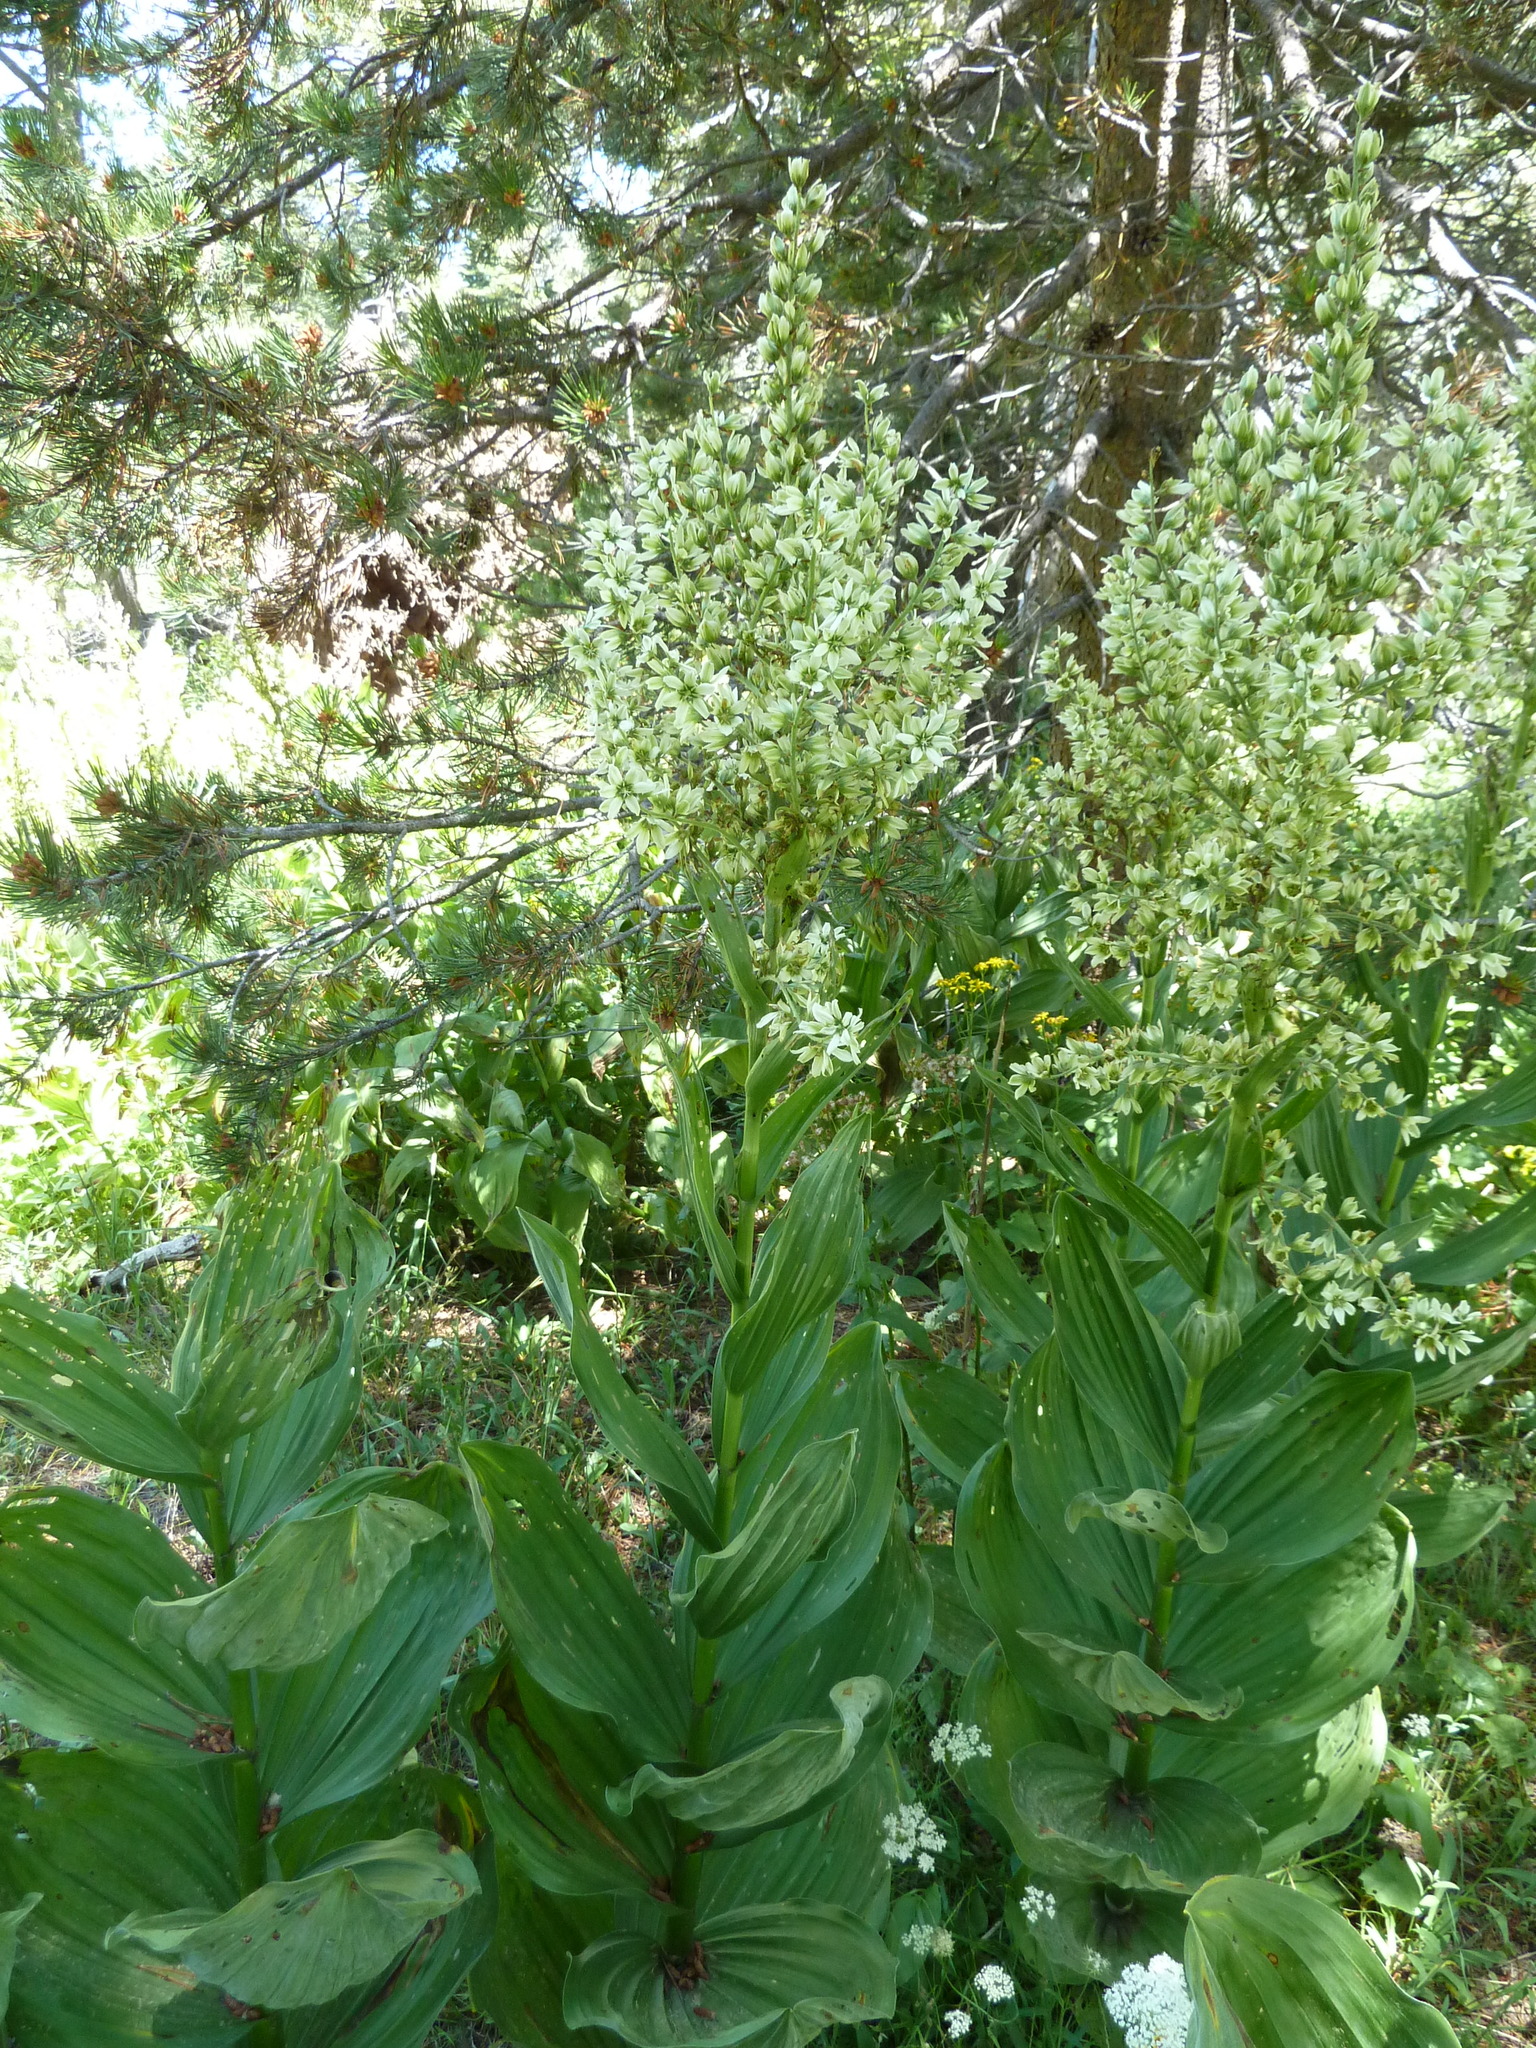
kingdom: Plantae
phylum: Tracheophyta
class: Liliopsida
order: Liliales
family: Melanthiaceae
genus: Veratrum
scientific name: Veratrum californicum
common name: California veratrum
